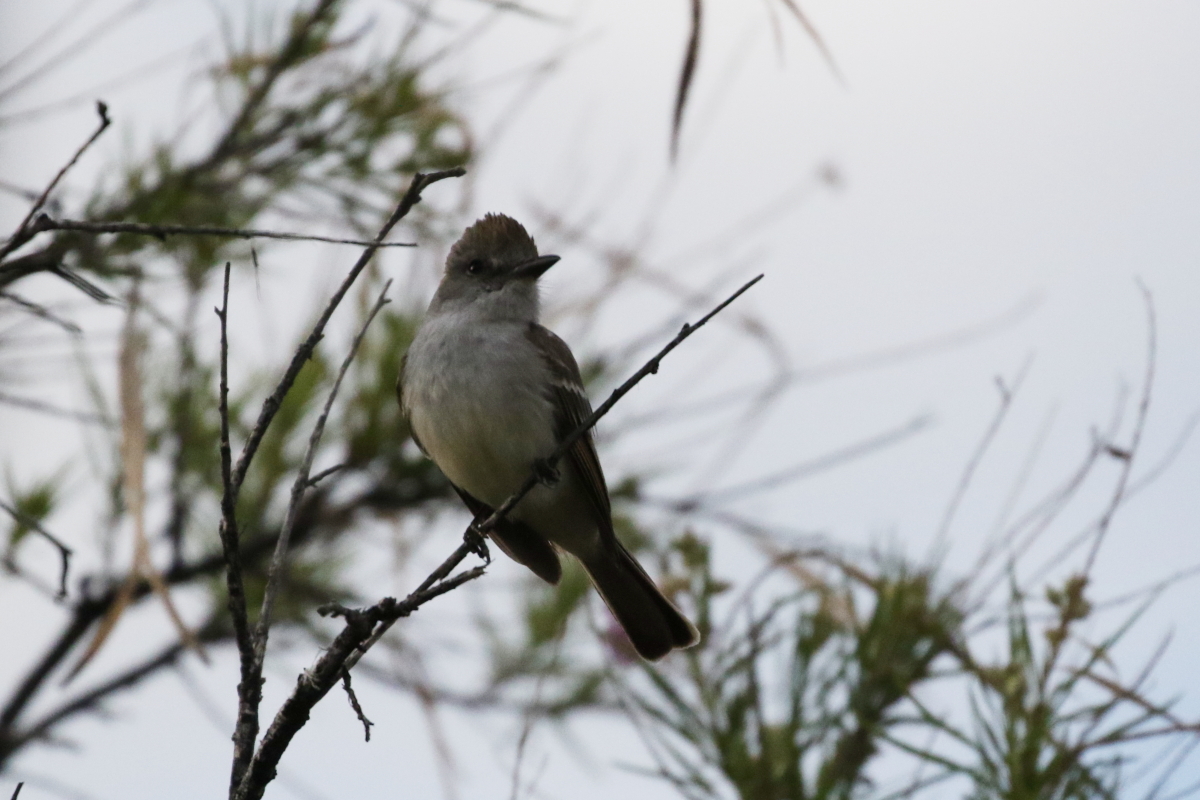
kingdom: Animalia
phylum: Chordata
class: Aves
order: Passeriformes
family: Tyrannidae
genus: Myiarchus
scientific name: Myiarchus cinerascens
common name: Ash-throated flycatcher
